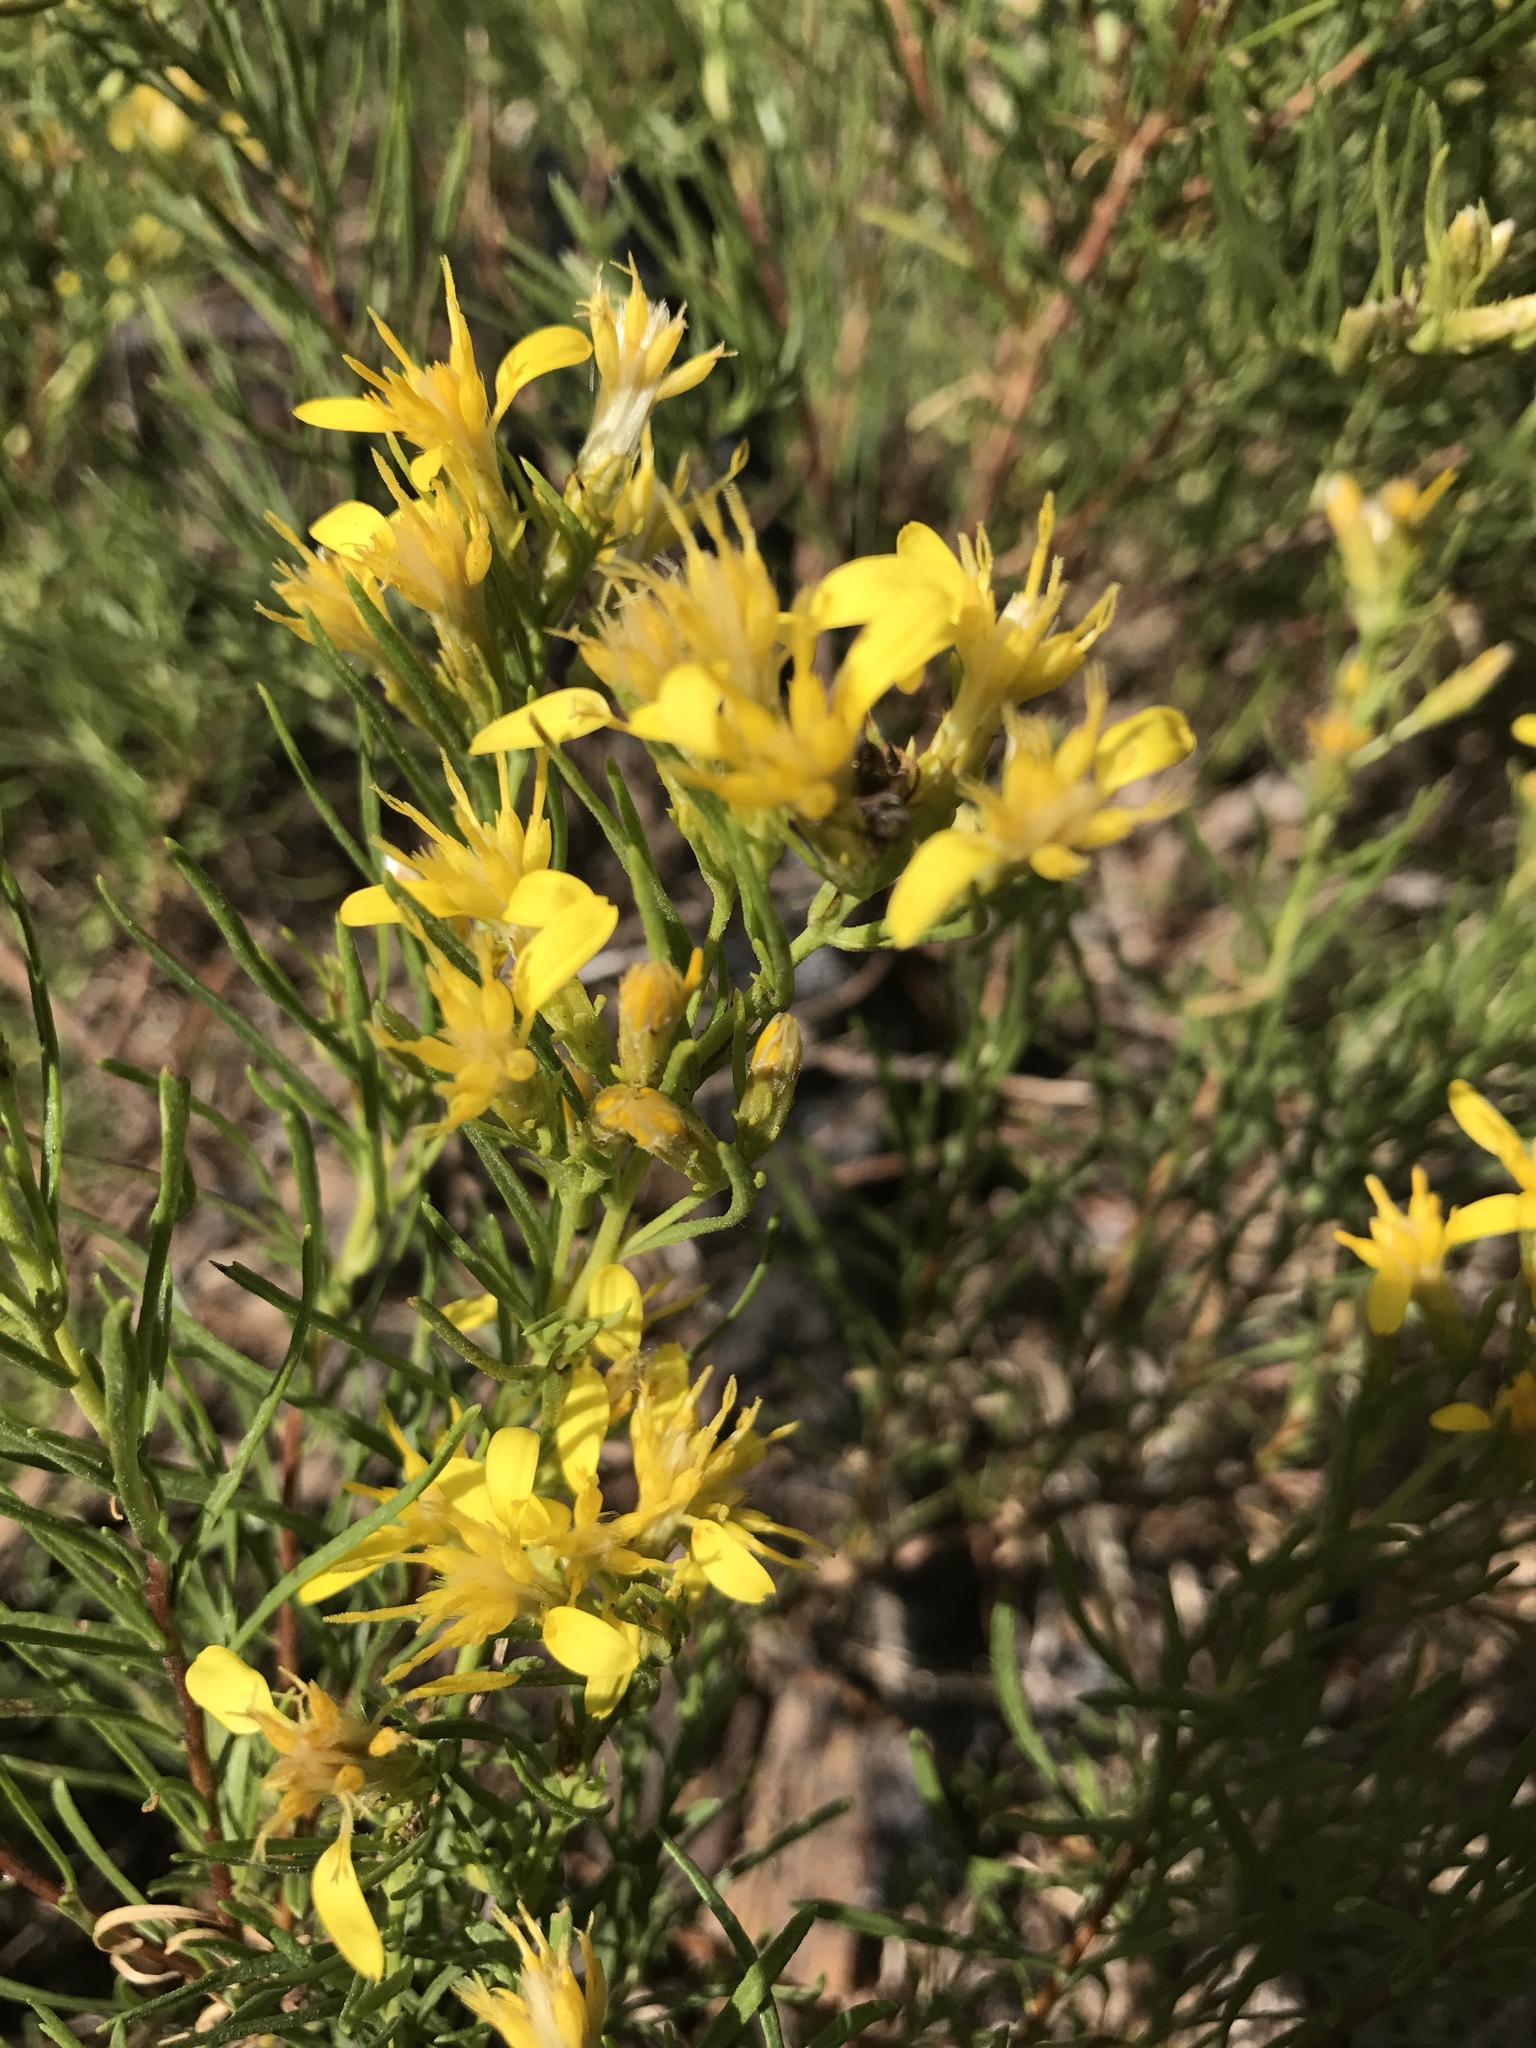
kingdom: Plantae
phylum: Tracheophyta
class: Magnoliopsida
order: Asterales
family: Asteraceae
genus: Ericameria
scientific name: Ericameria bloomeri
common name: Bloomer's goldenbush
